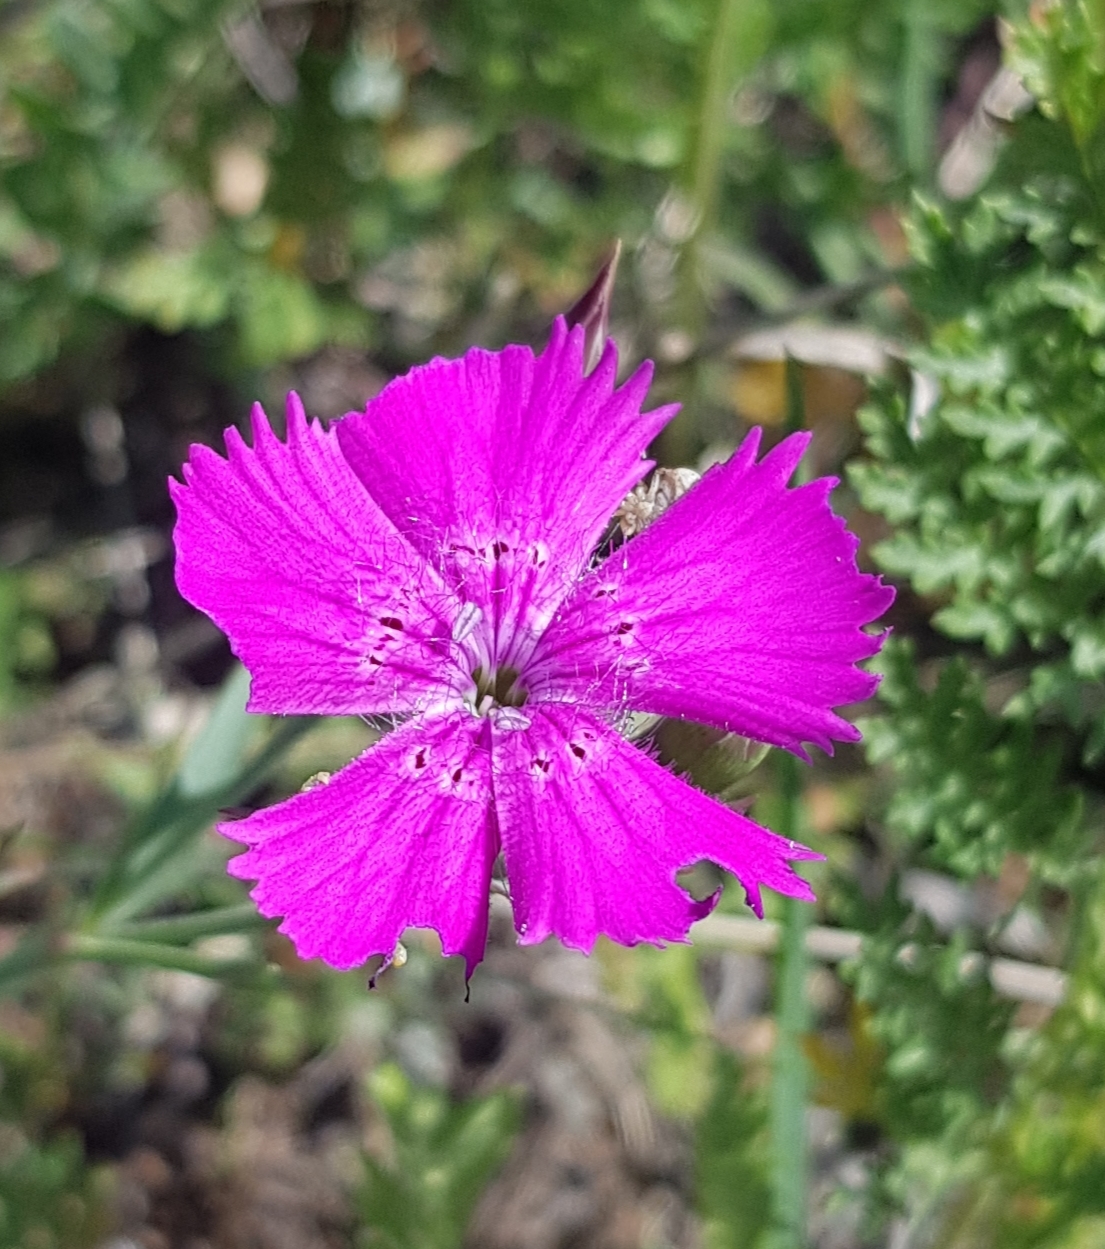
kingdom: Plantae
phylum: Tracheophyta
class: Magnoliopsida
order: Caryophyllales
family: Caryophyllaceae
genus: Dianthus
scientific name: Dianthus chinensis
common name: Rainbow pink
